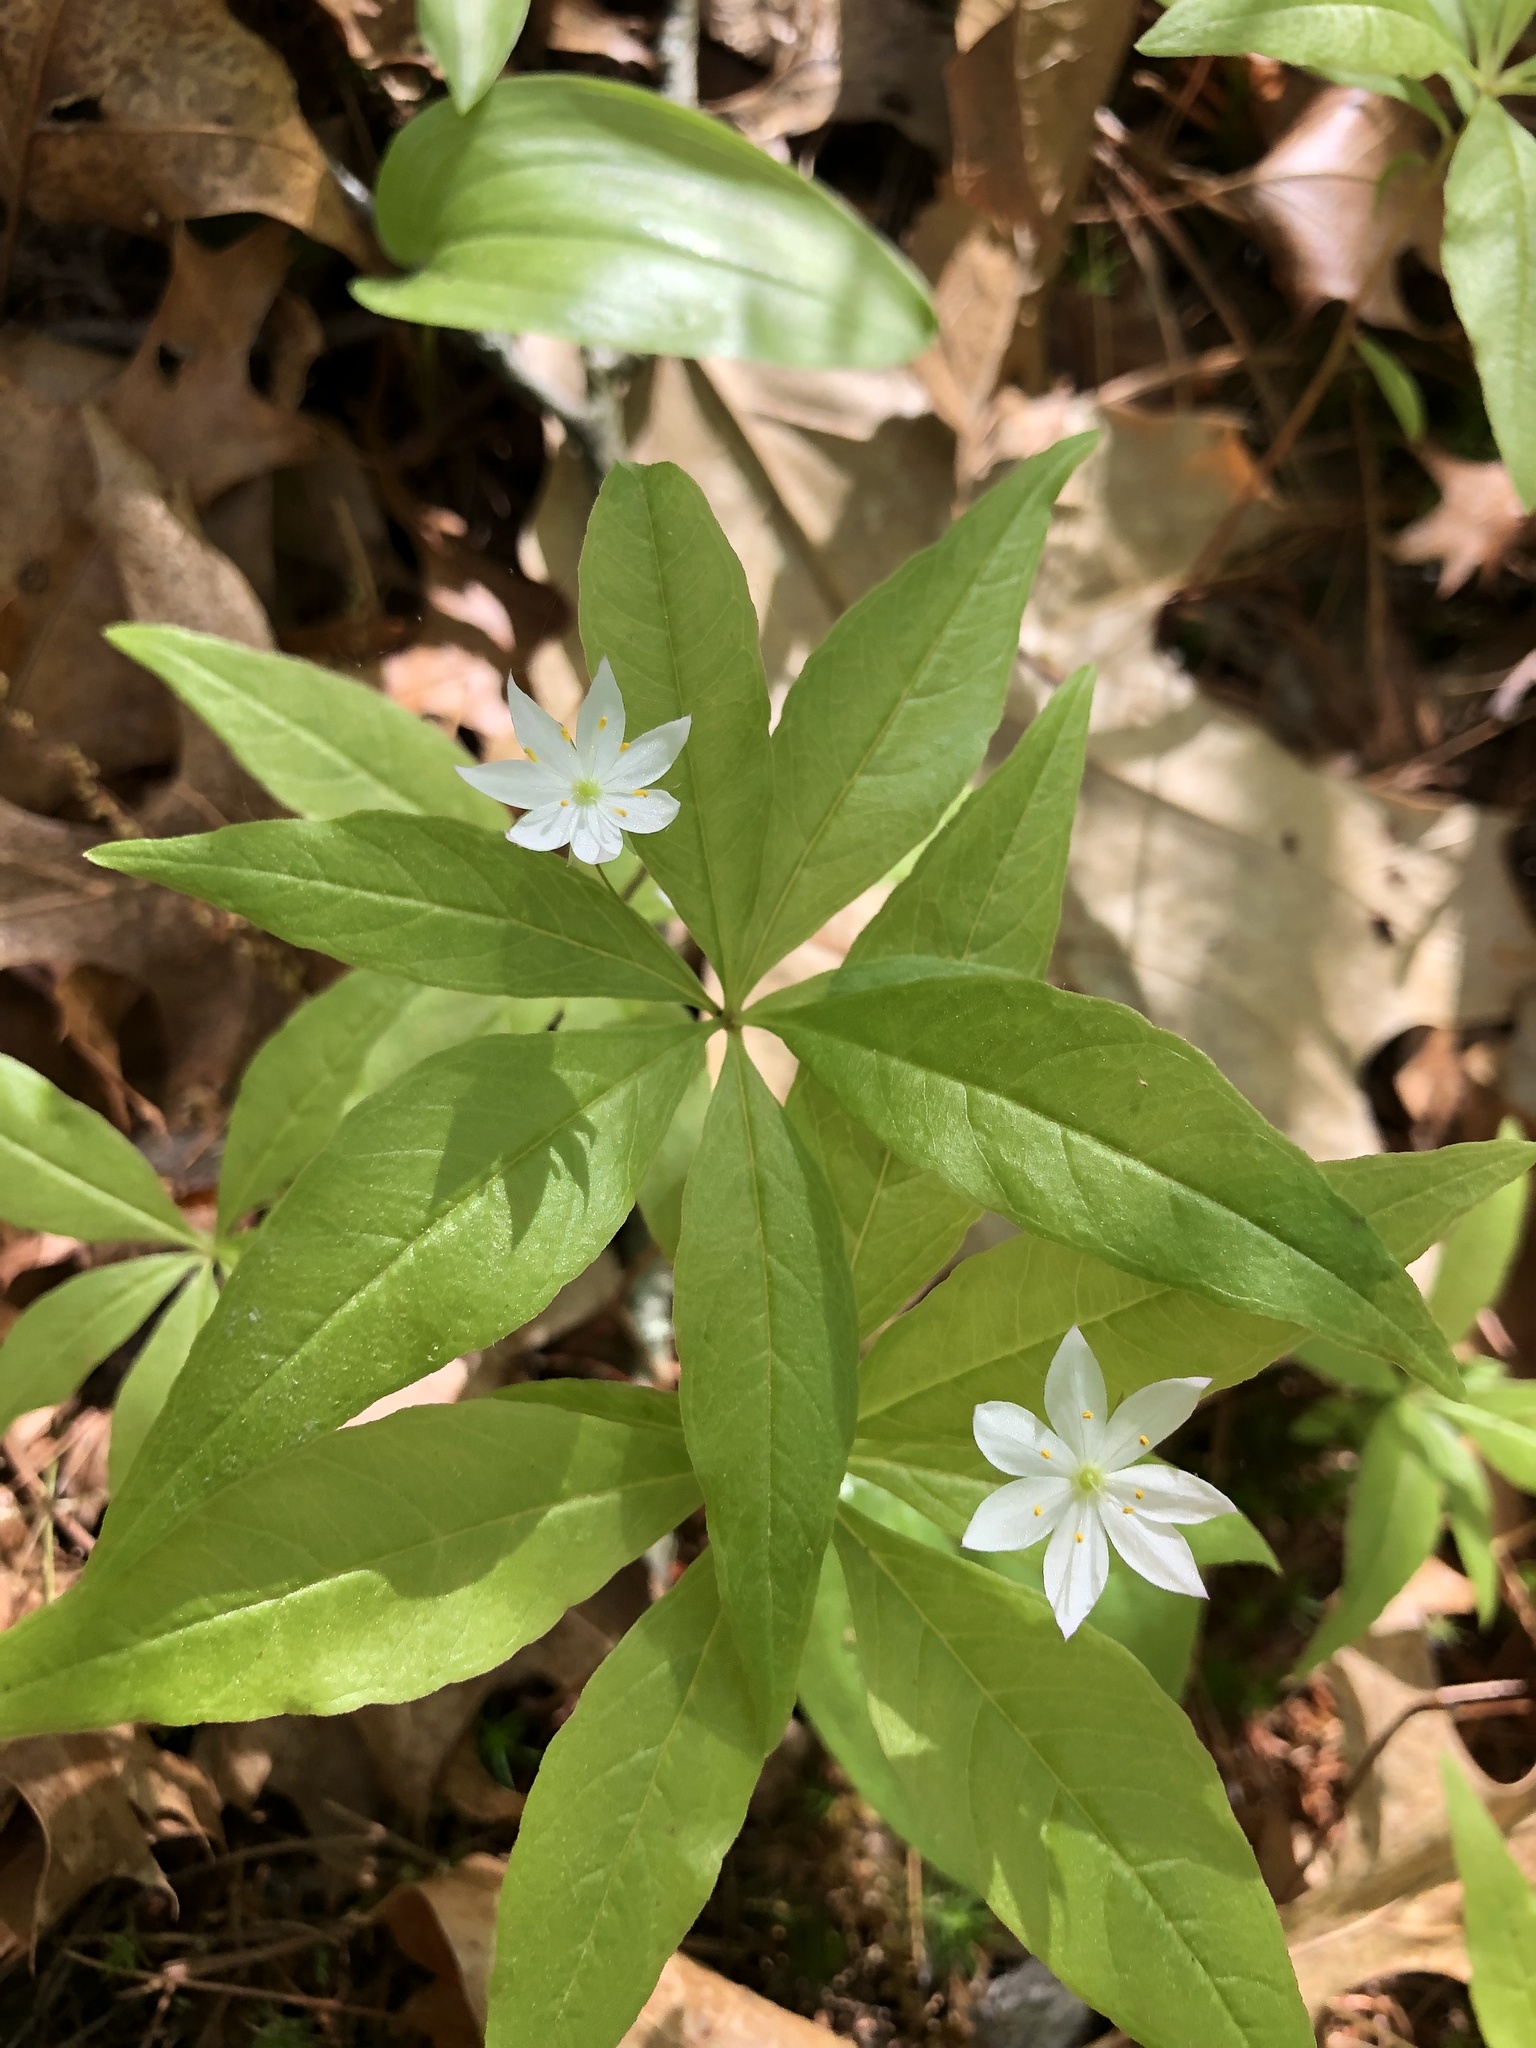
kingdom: Plantae
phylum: Tracheophyta
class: Magnoliopsida
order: Ericales
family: Primulaceae
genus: Lysimachia
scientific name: Lysimachia borealis
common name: American starflower
